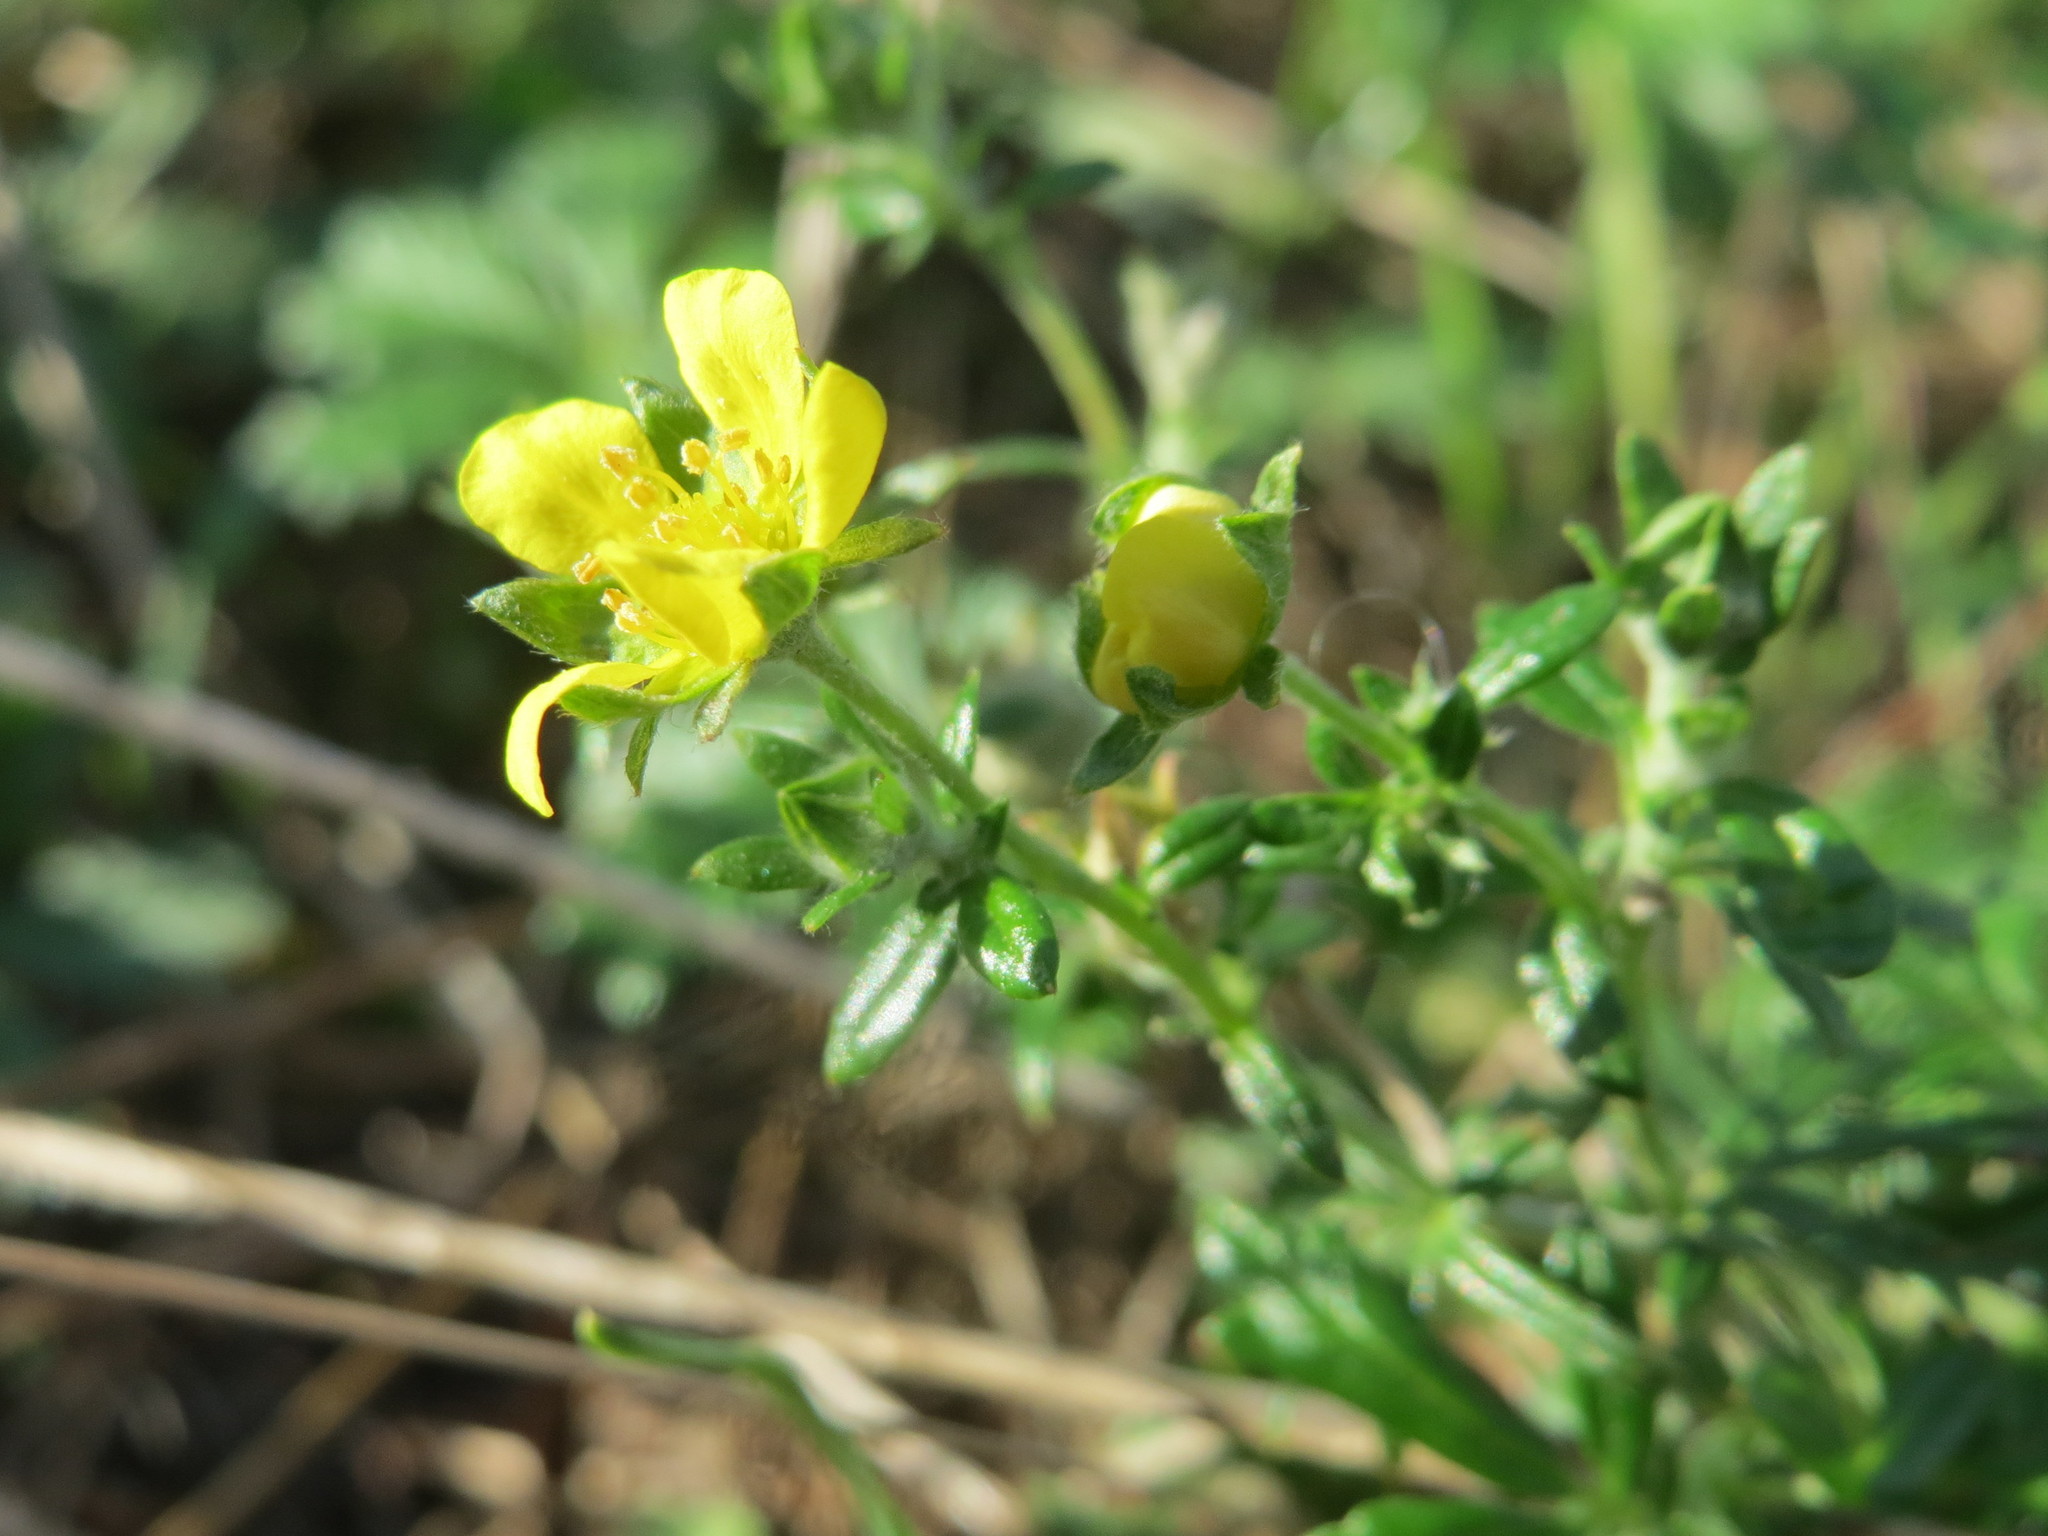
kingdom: Plantae
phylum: Tracheophyta
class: Magnoliopsida
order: Rosales
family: Rosaceae
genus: Potentilla
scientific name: Potentilla argentea
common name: Hoary cinquefoil
